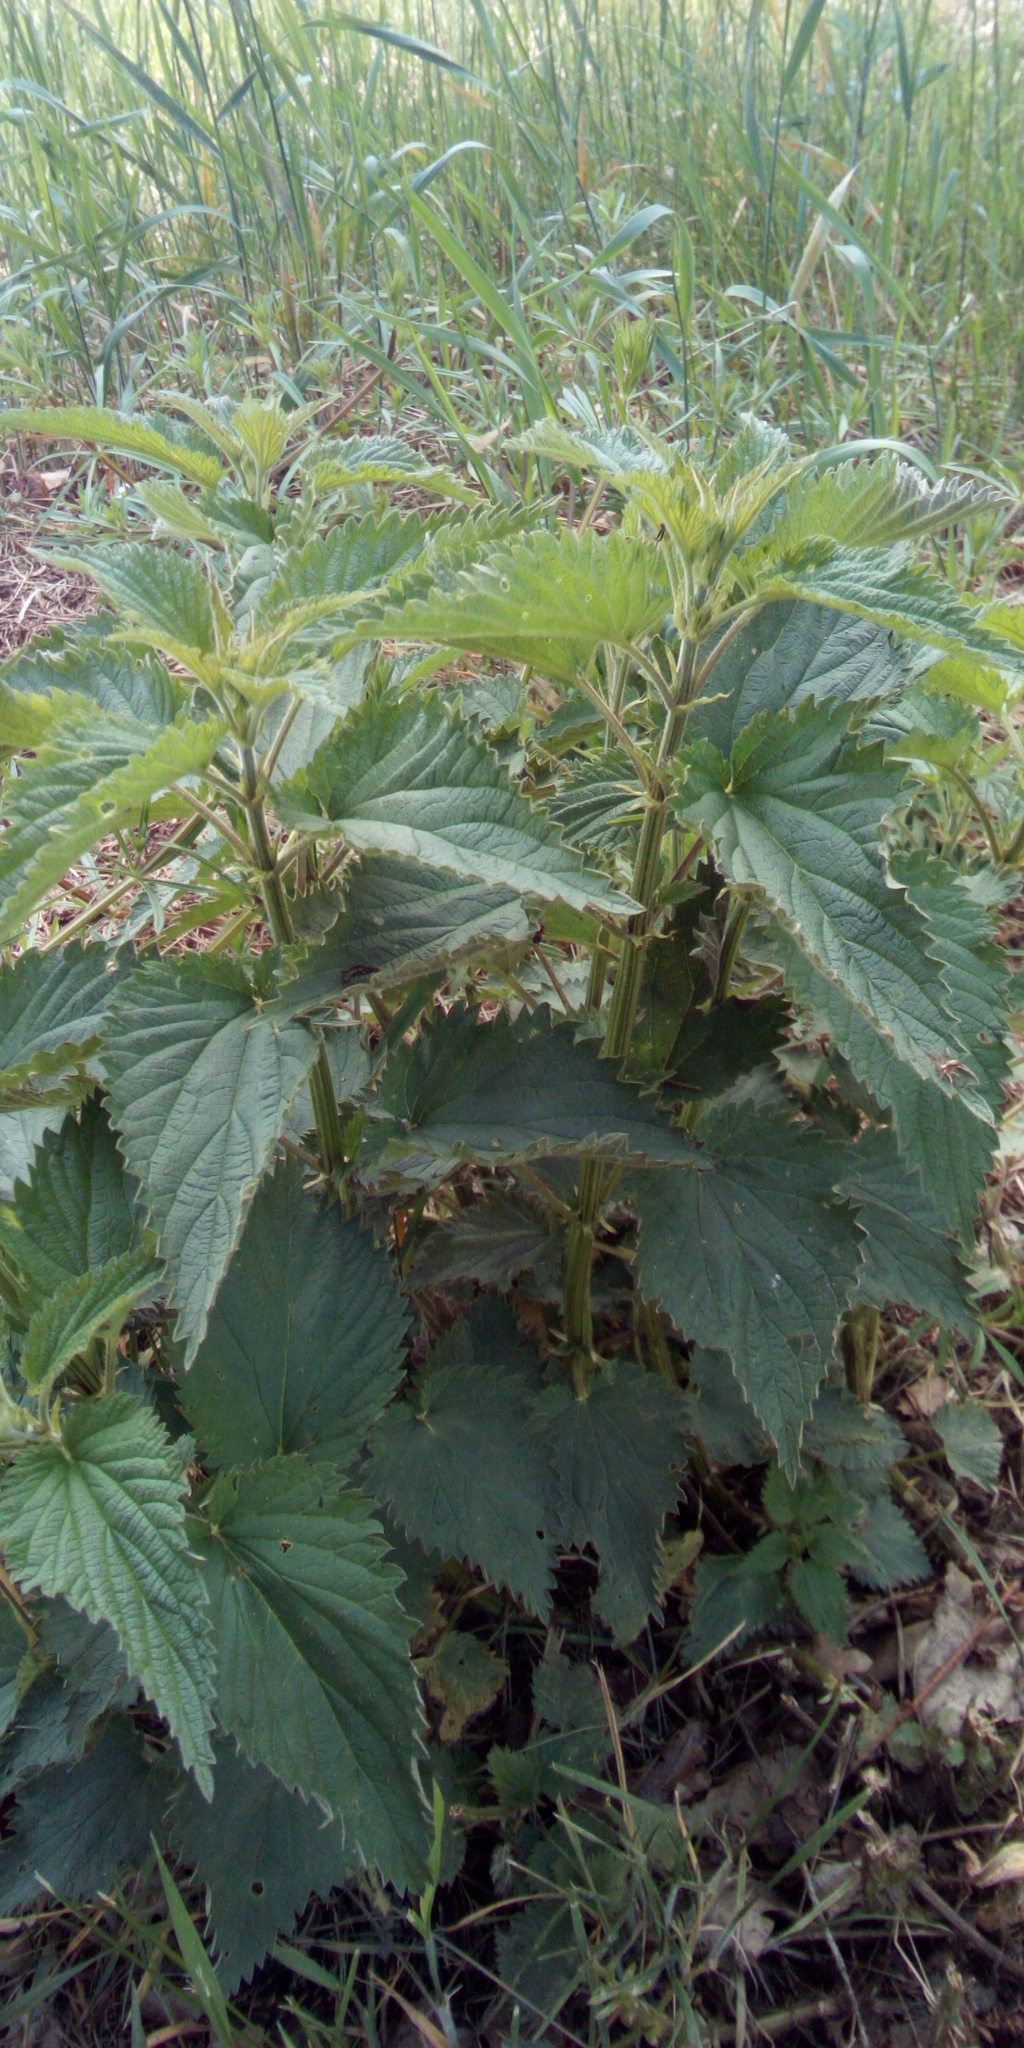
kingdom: Plantae
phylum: Tracheophyta
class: Magnoliopsida
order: Rosales
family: Urticaceae
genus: Urtica
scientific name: Urtica dioica
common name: Common nettle
